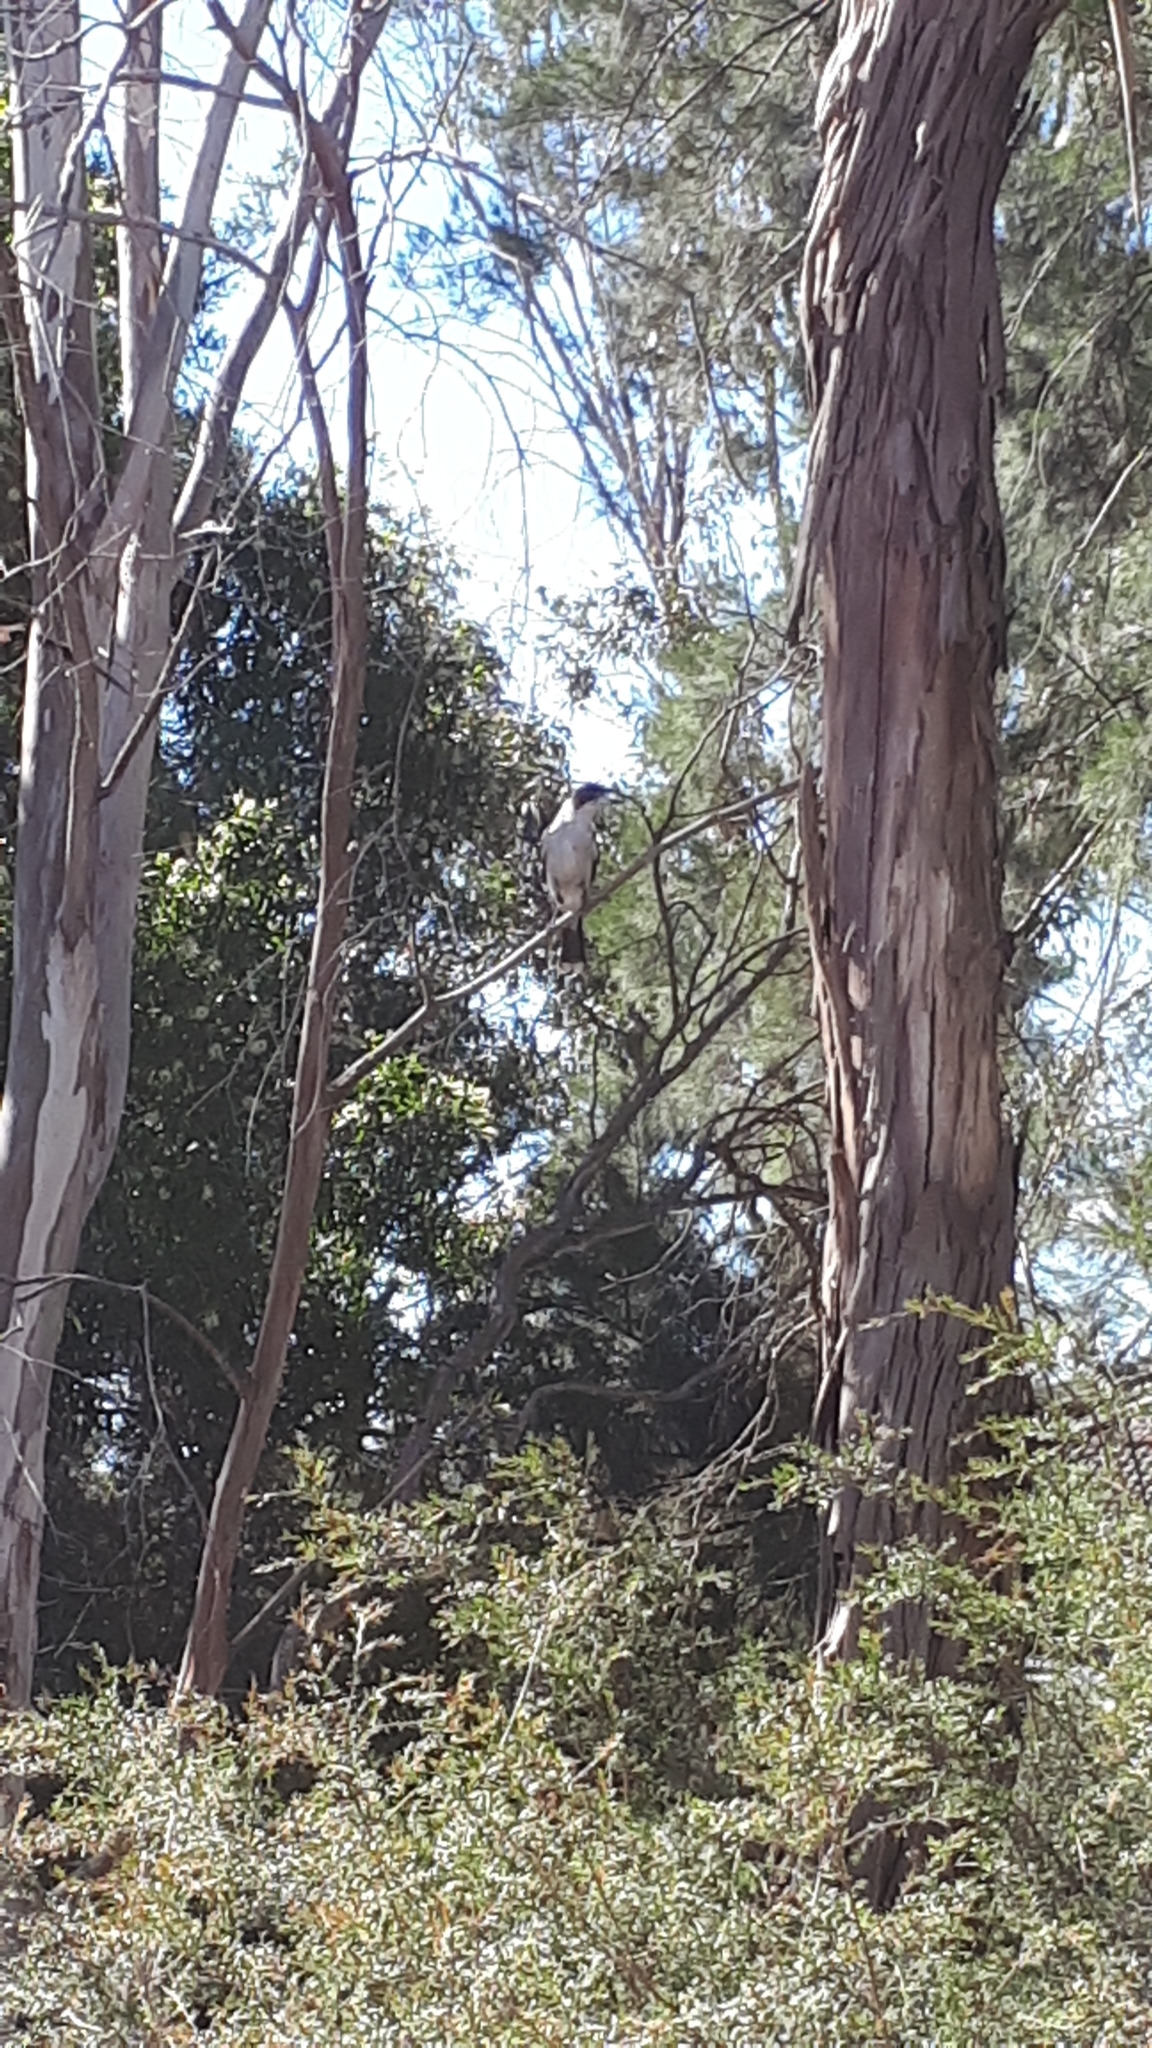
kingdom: Animalia
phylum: Chordata
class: Aves
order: Passeriformes
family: Cracticidae
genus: Cracticus
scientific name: Cracticus torquatus
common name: Grey butcherbird
